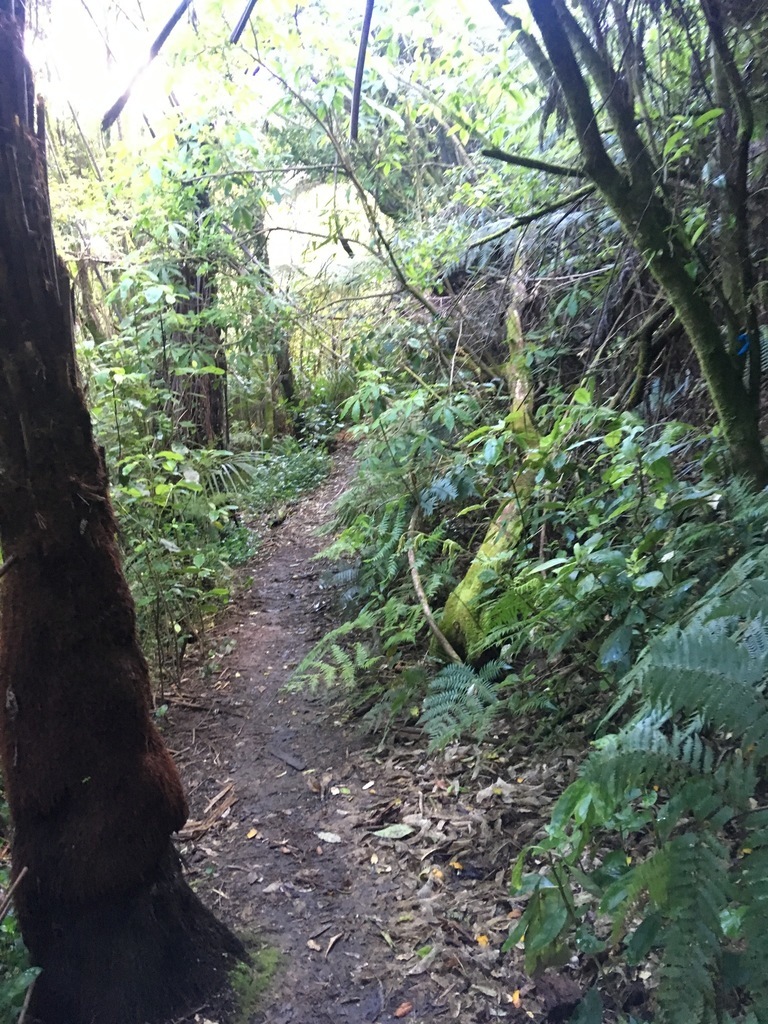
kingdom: Plantae
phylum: Tracheophyta
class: Magnoliopsida
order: Rosales
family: Rosaceae
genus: Rubus
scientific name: Rubus cissoides
